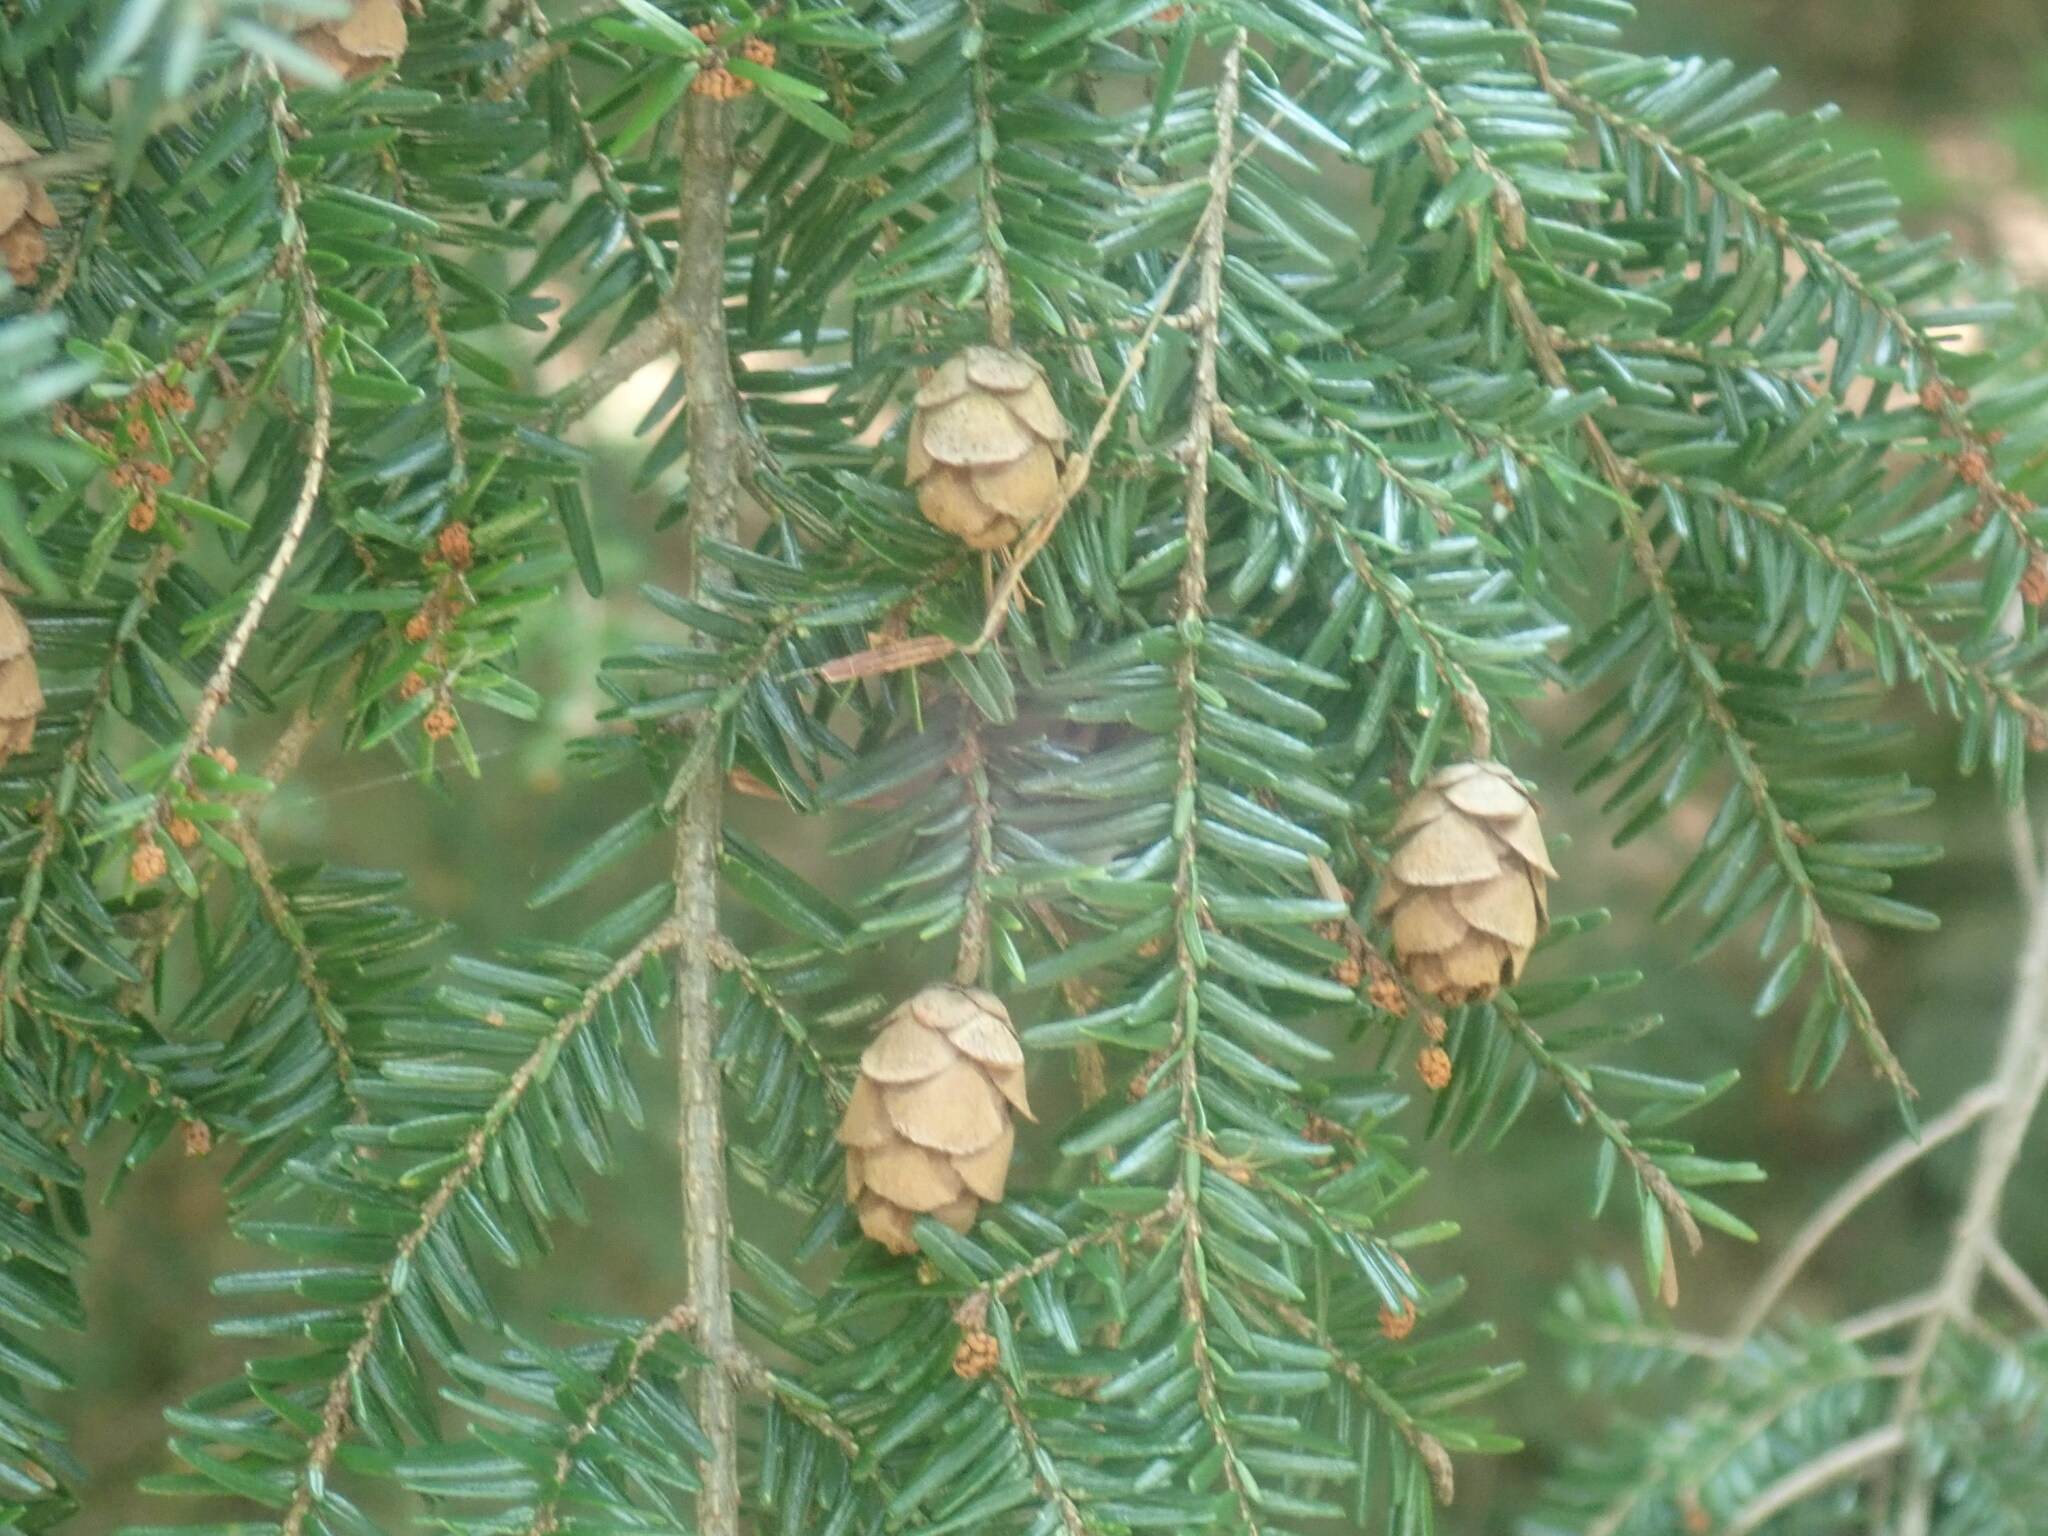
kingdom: Plantae
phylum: Tracheophyta
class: Pinopsida
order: Pinales
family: Pinaceae
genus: Tsuga
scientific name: Tsuga canadensis
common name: Eastern hemlock
